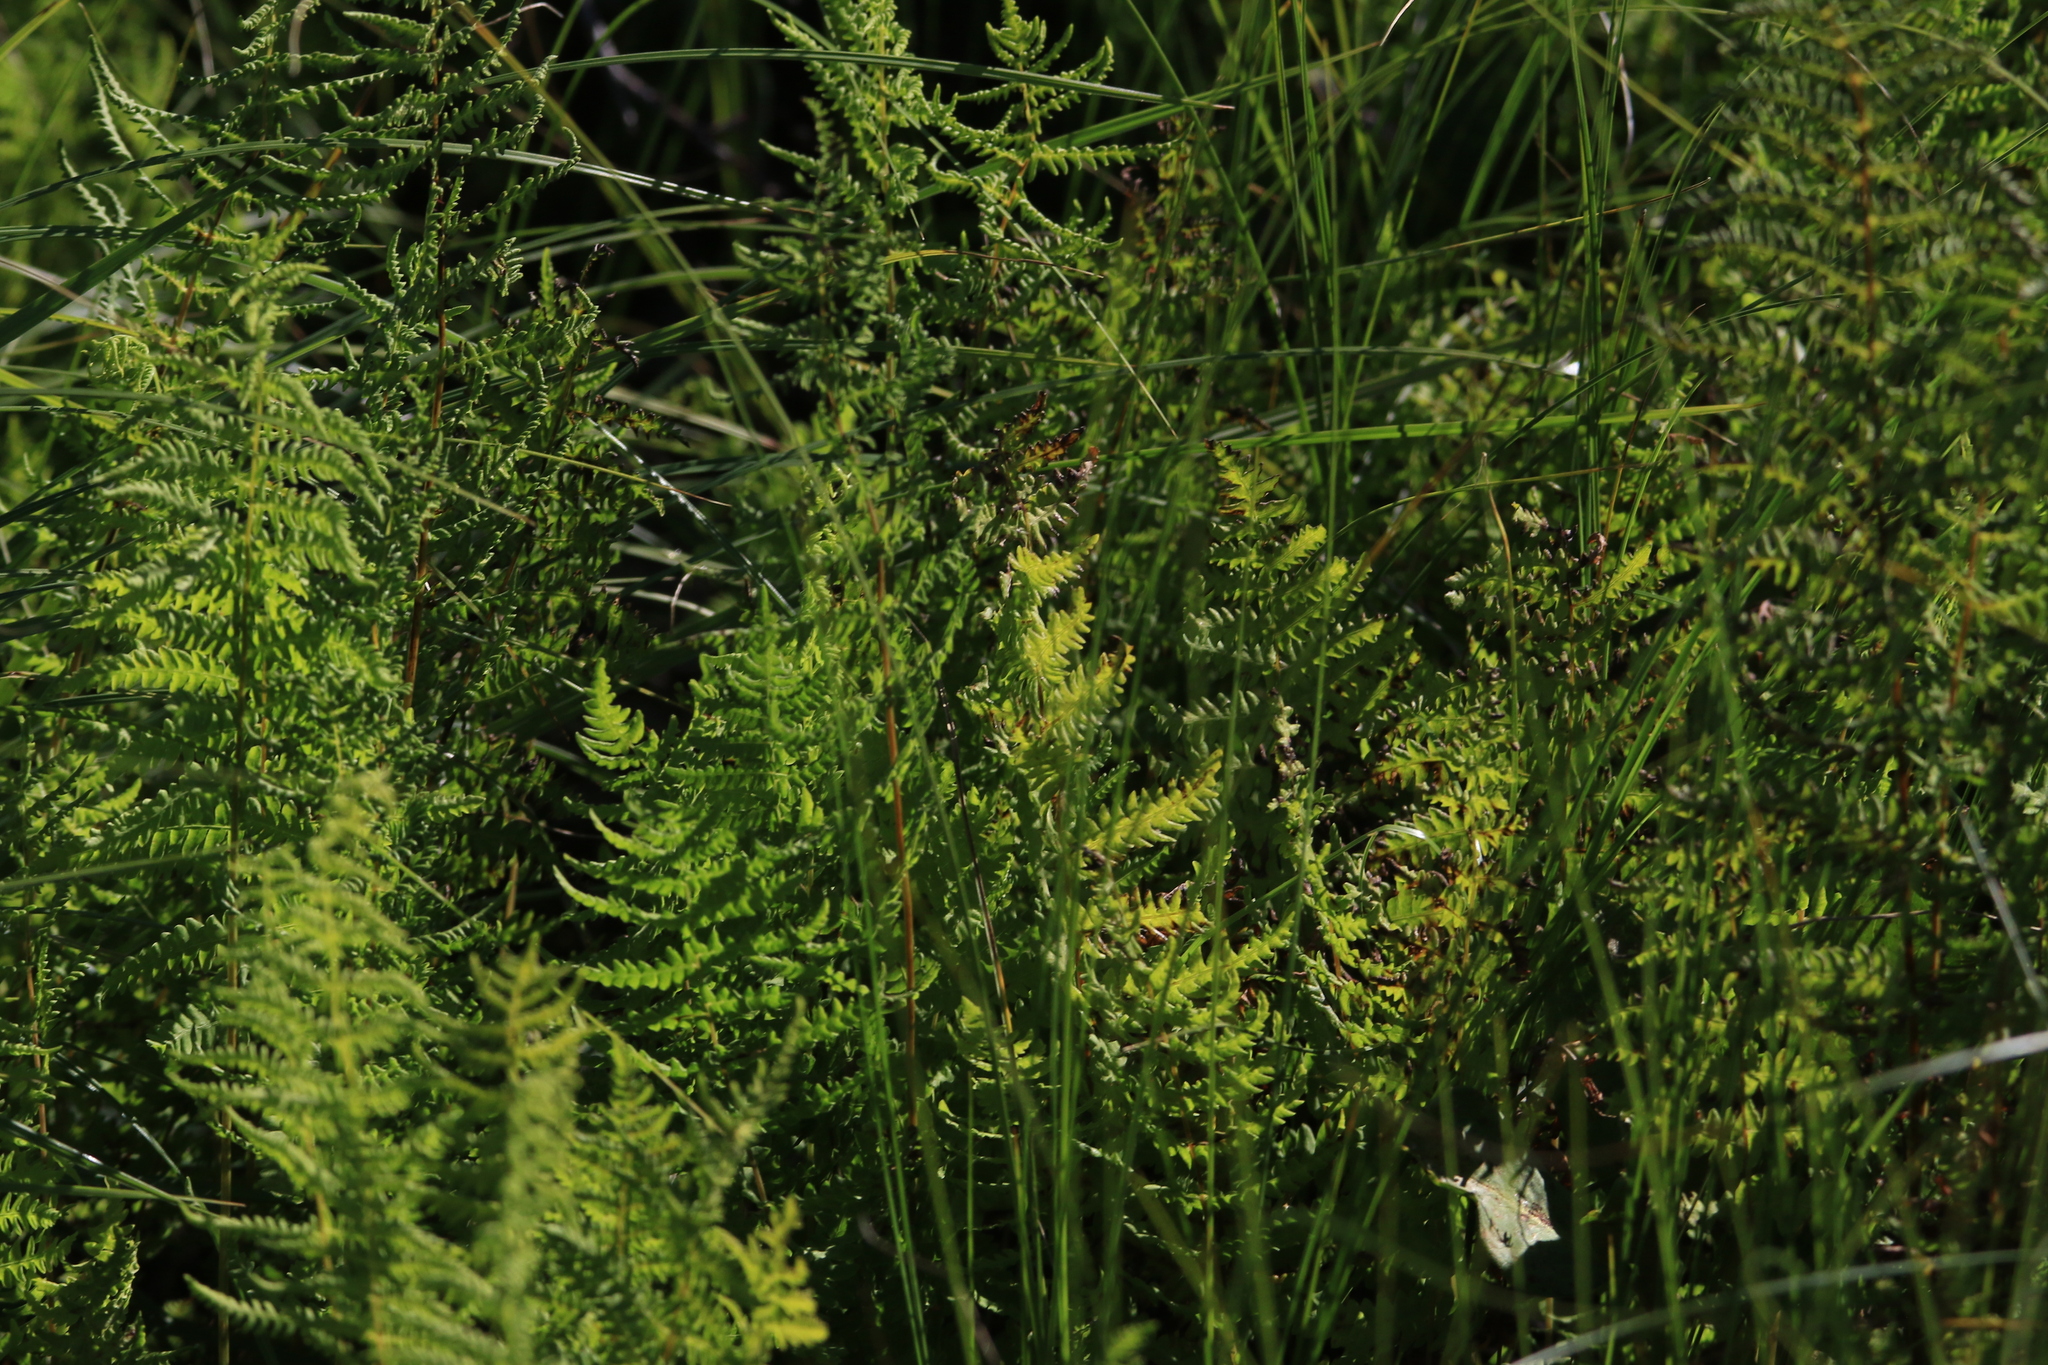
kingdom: Plantae
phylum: Tracheophyta
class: Polypodiopsida
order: Polypodiales
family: Thelypteridaceae
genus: Thelypteris
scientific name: Thelypteris palustris
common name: Marsh fern
